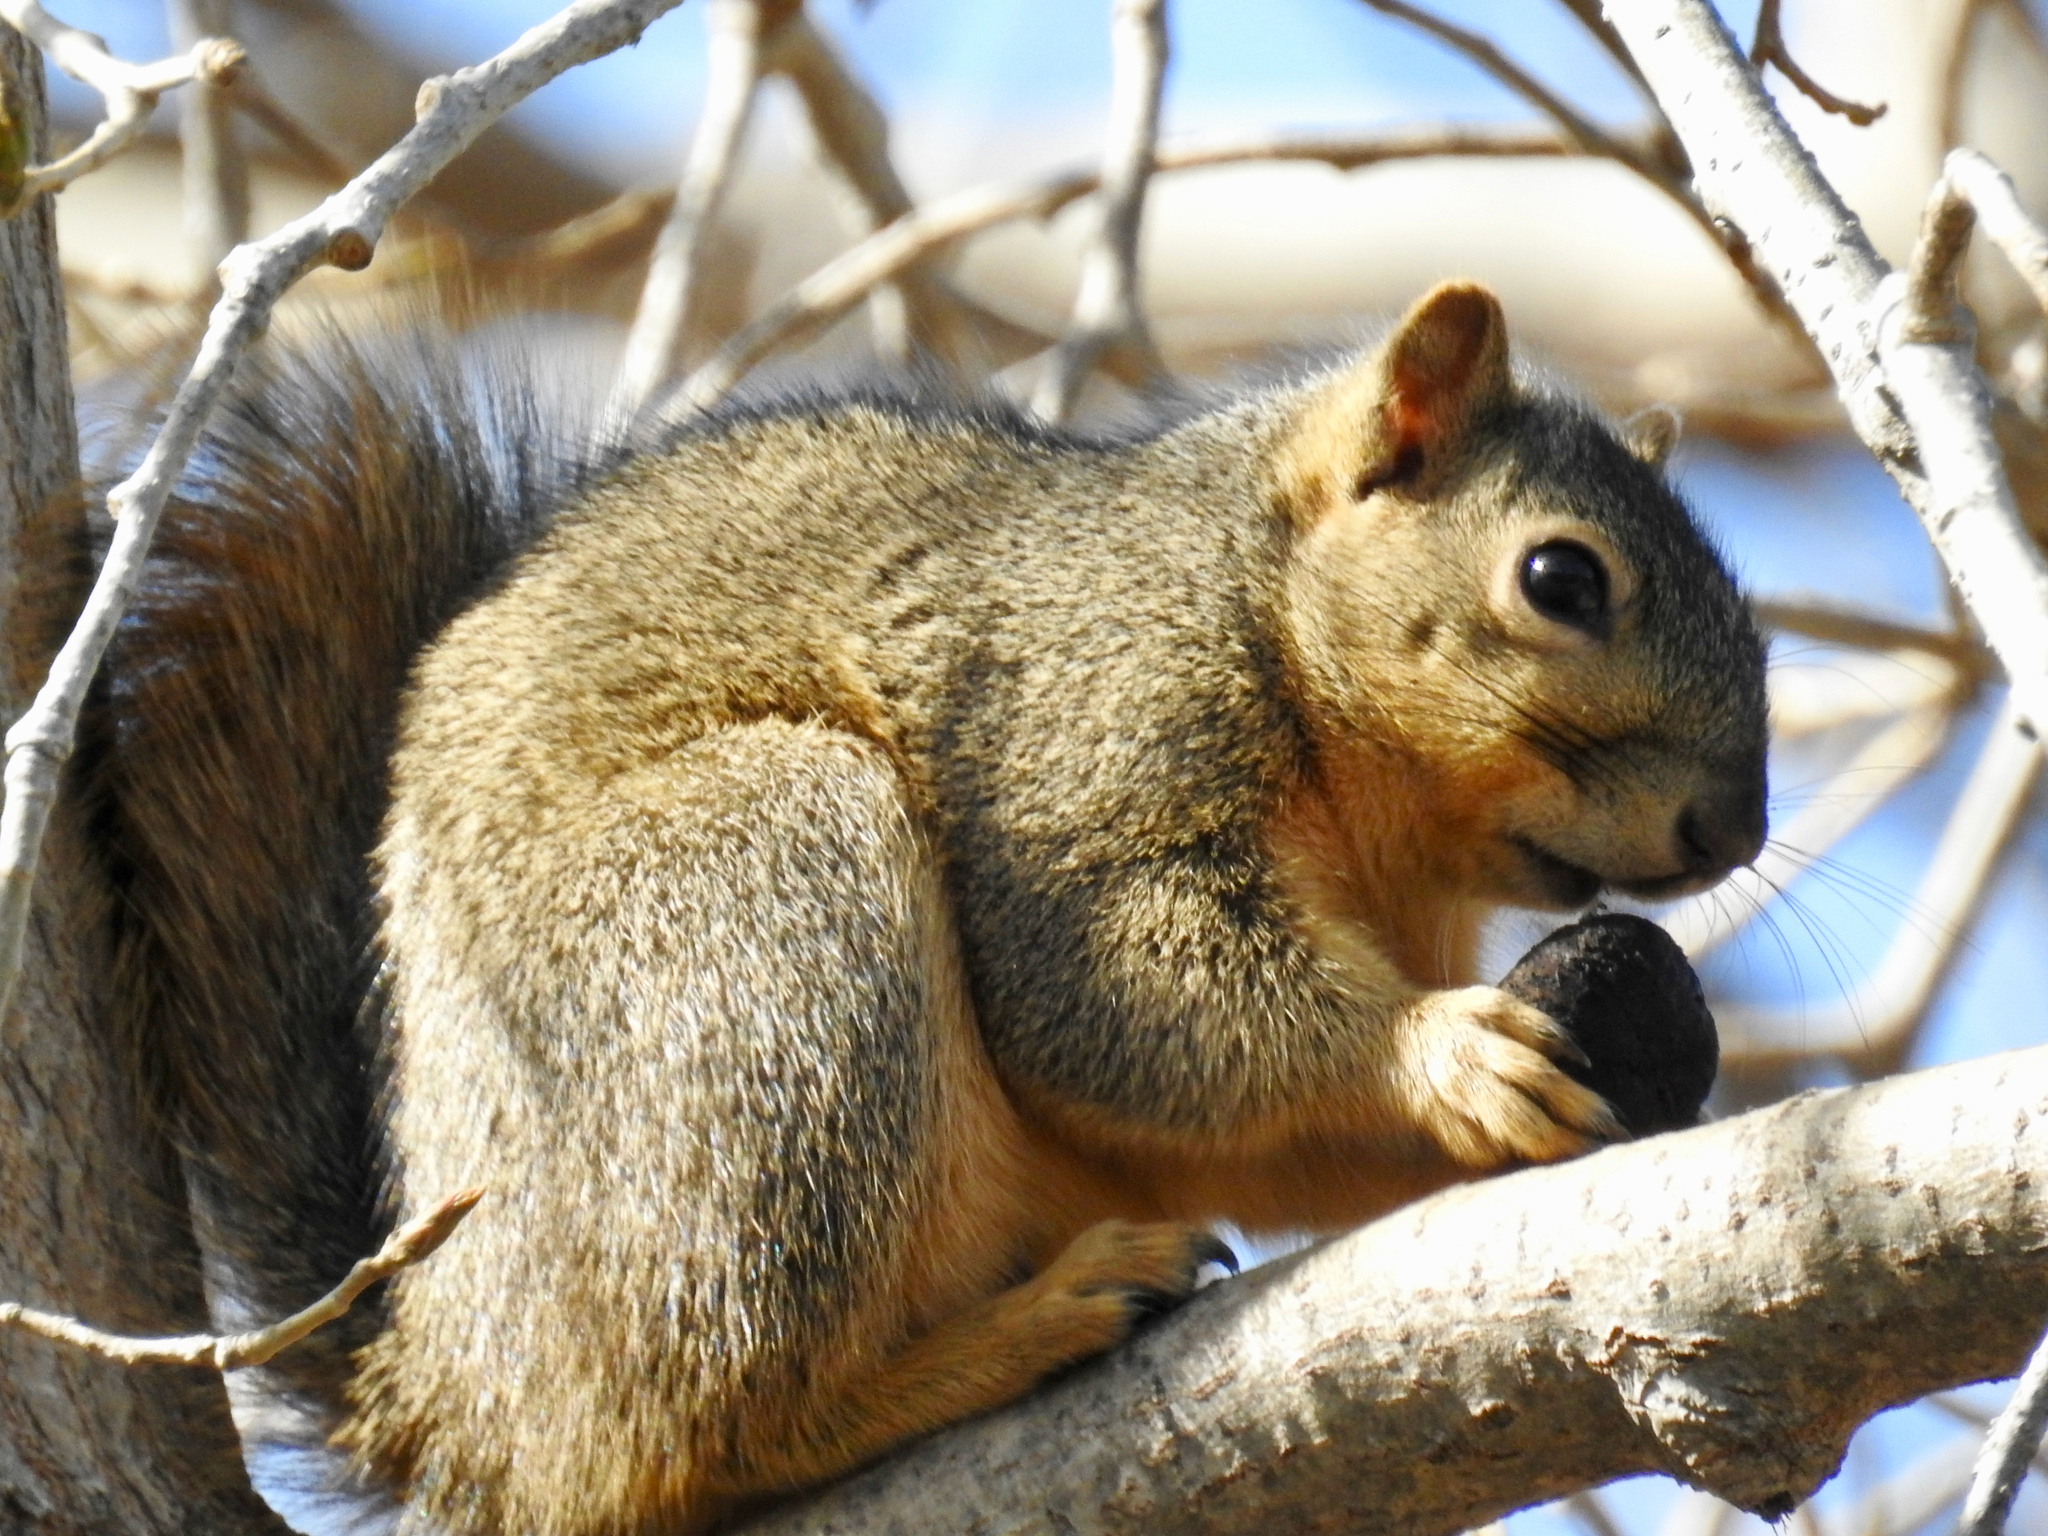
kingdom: Animalia
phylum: Chordata
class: Mammalia
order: Rodentia
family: Sciuridae
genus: Sciurus
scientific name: Sciurus niger
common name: Fox squirrel
